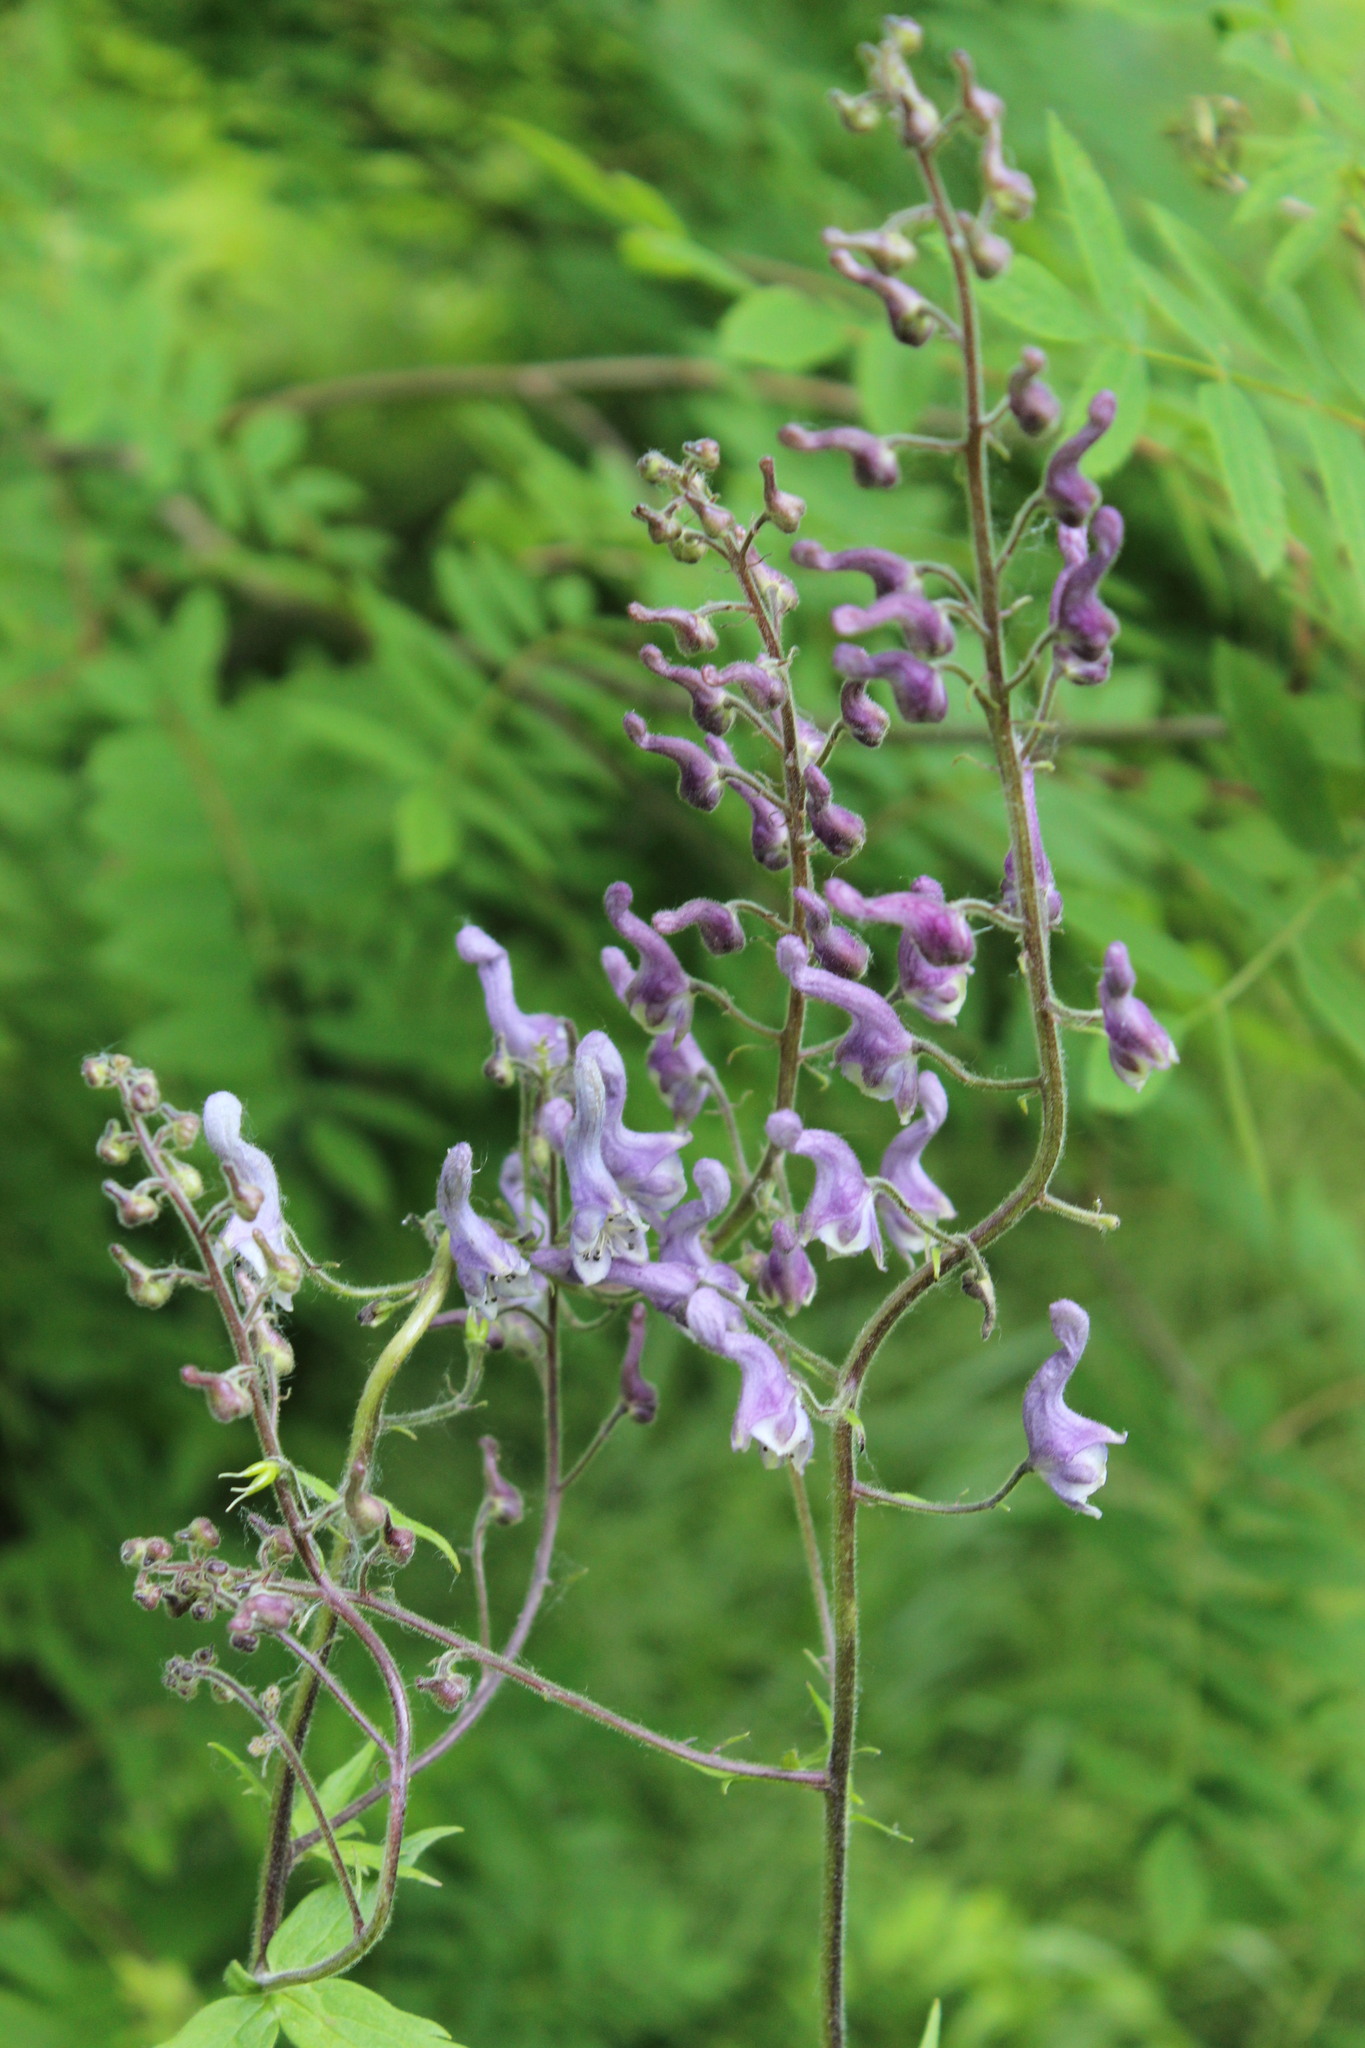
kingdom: Plantae
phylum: Tracheophyta
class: Magnoliopsida
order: Ranunculales
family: Ranunculaceae
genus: Aconitum
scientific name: Aconitum septentrionale
